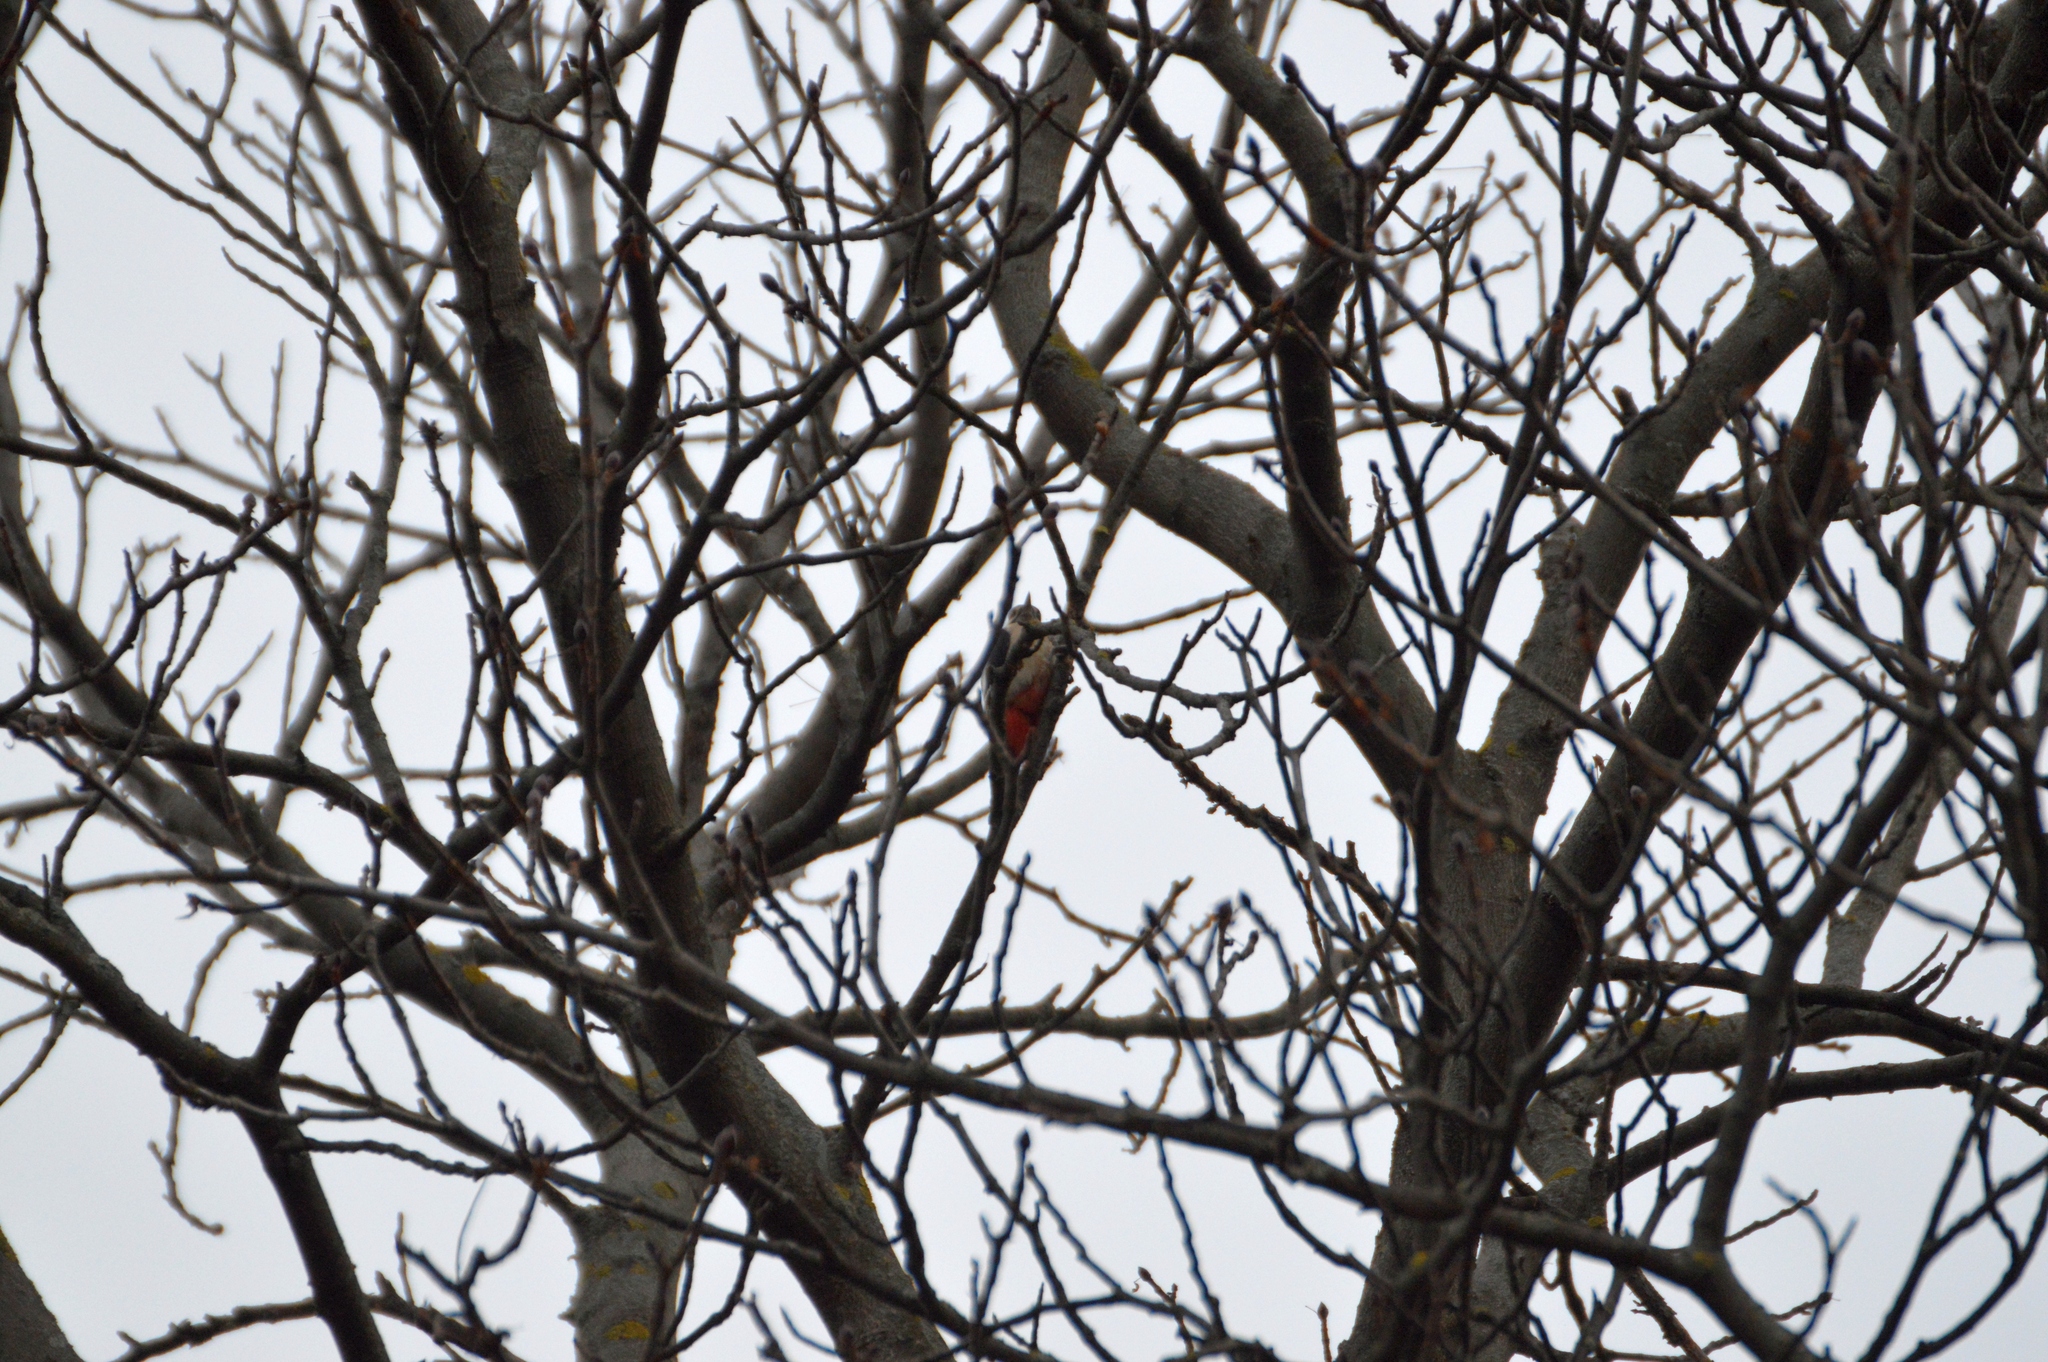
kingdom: Animalia
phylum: Chordata
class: Aves
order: Piciformes
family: Picidae
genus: Dendrocopos
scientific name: Dendrocopos major
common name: Great spotted woodpecker
